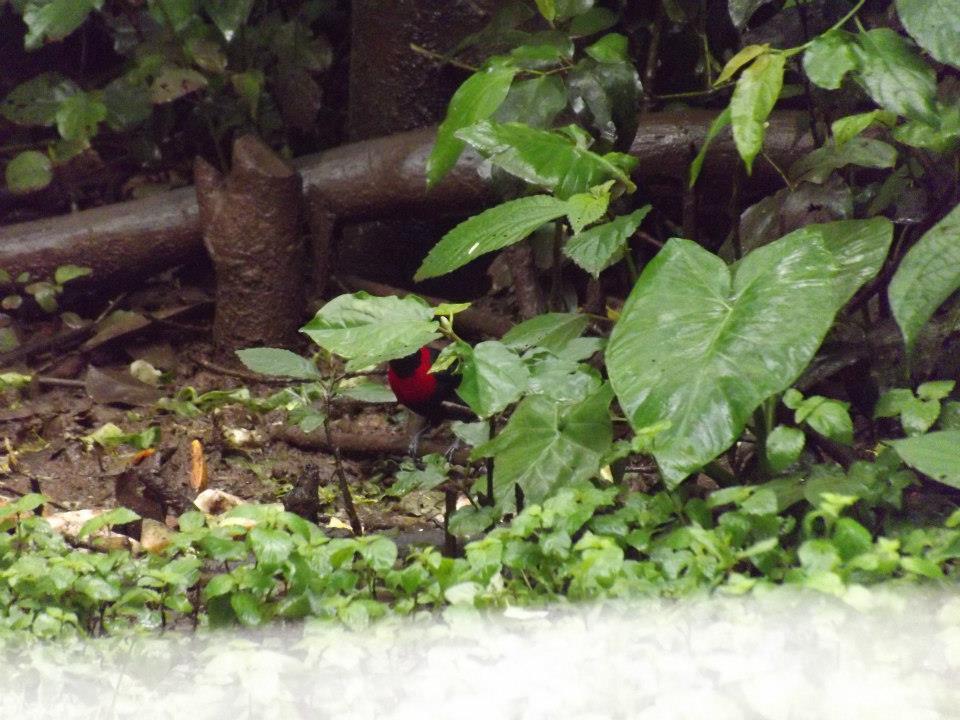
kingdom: Animalia
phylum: Chordata
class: Aves
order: Passeriformes
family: Thraupidae
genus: Ramphocelus
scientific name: Ramphocelus sanguinolentus
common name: Crimson-collared tanager
